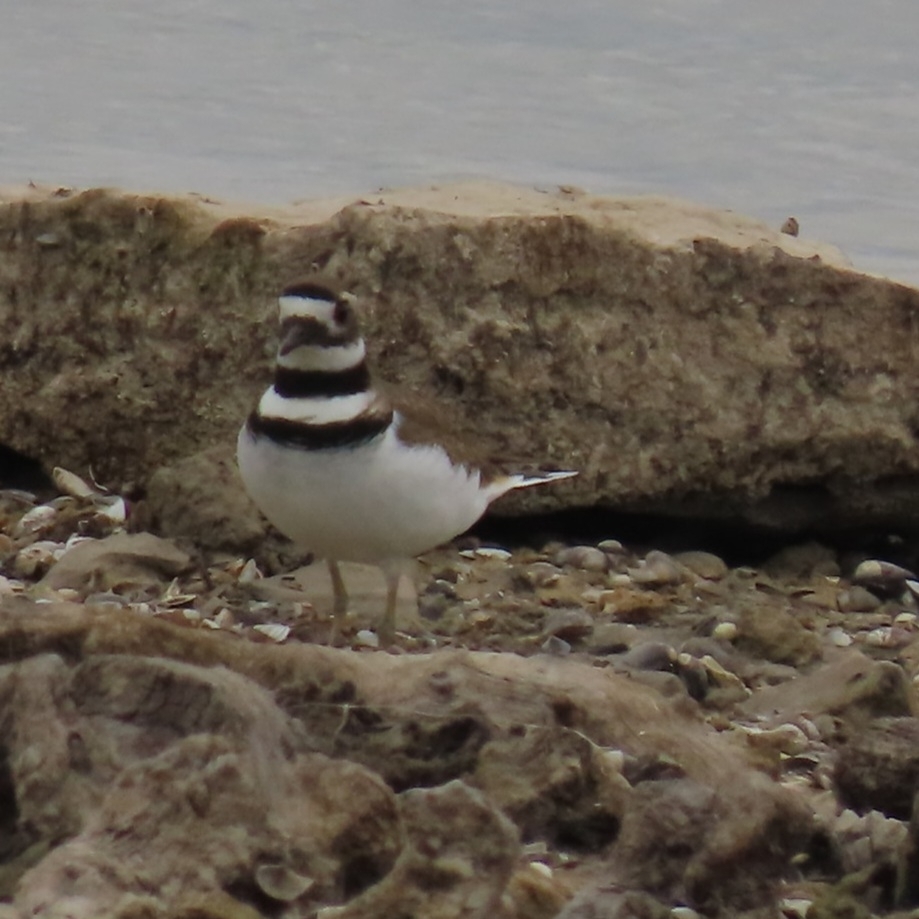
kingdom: Animalia
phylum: Chordata
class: Aves
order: Charadriiformes
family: Charadriidae
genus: Charadrius
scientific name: Charadrius vociferus
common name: Killdeer
